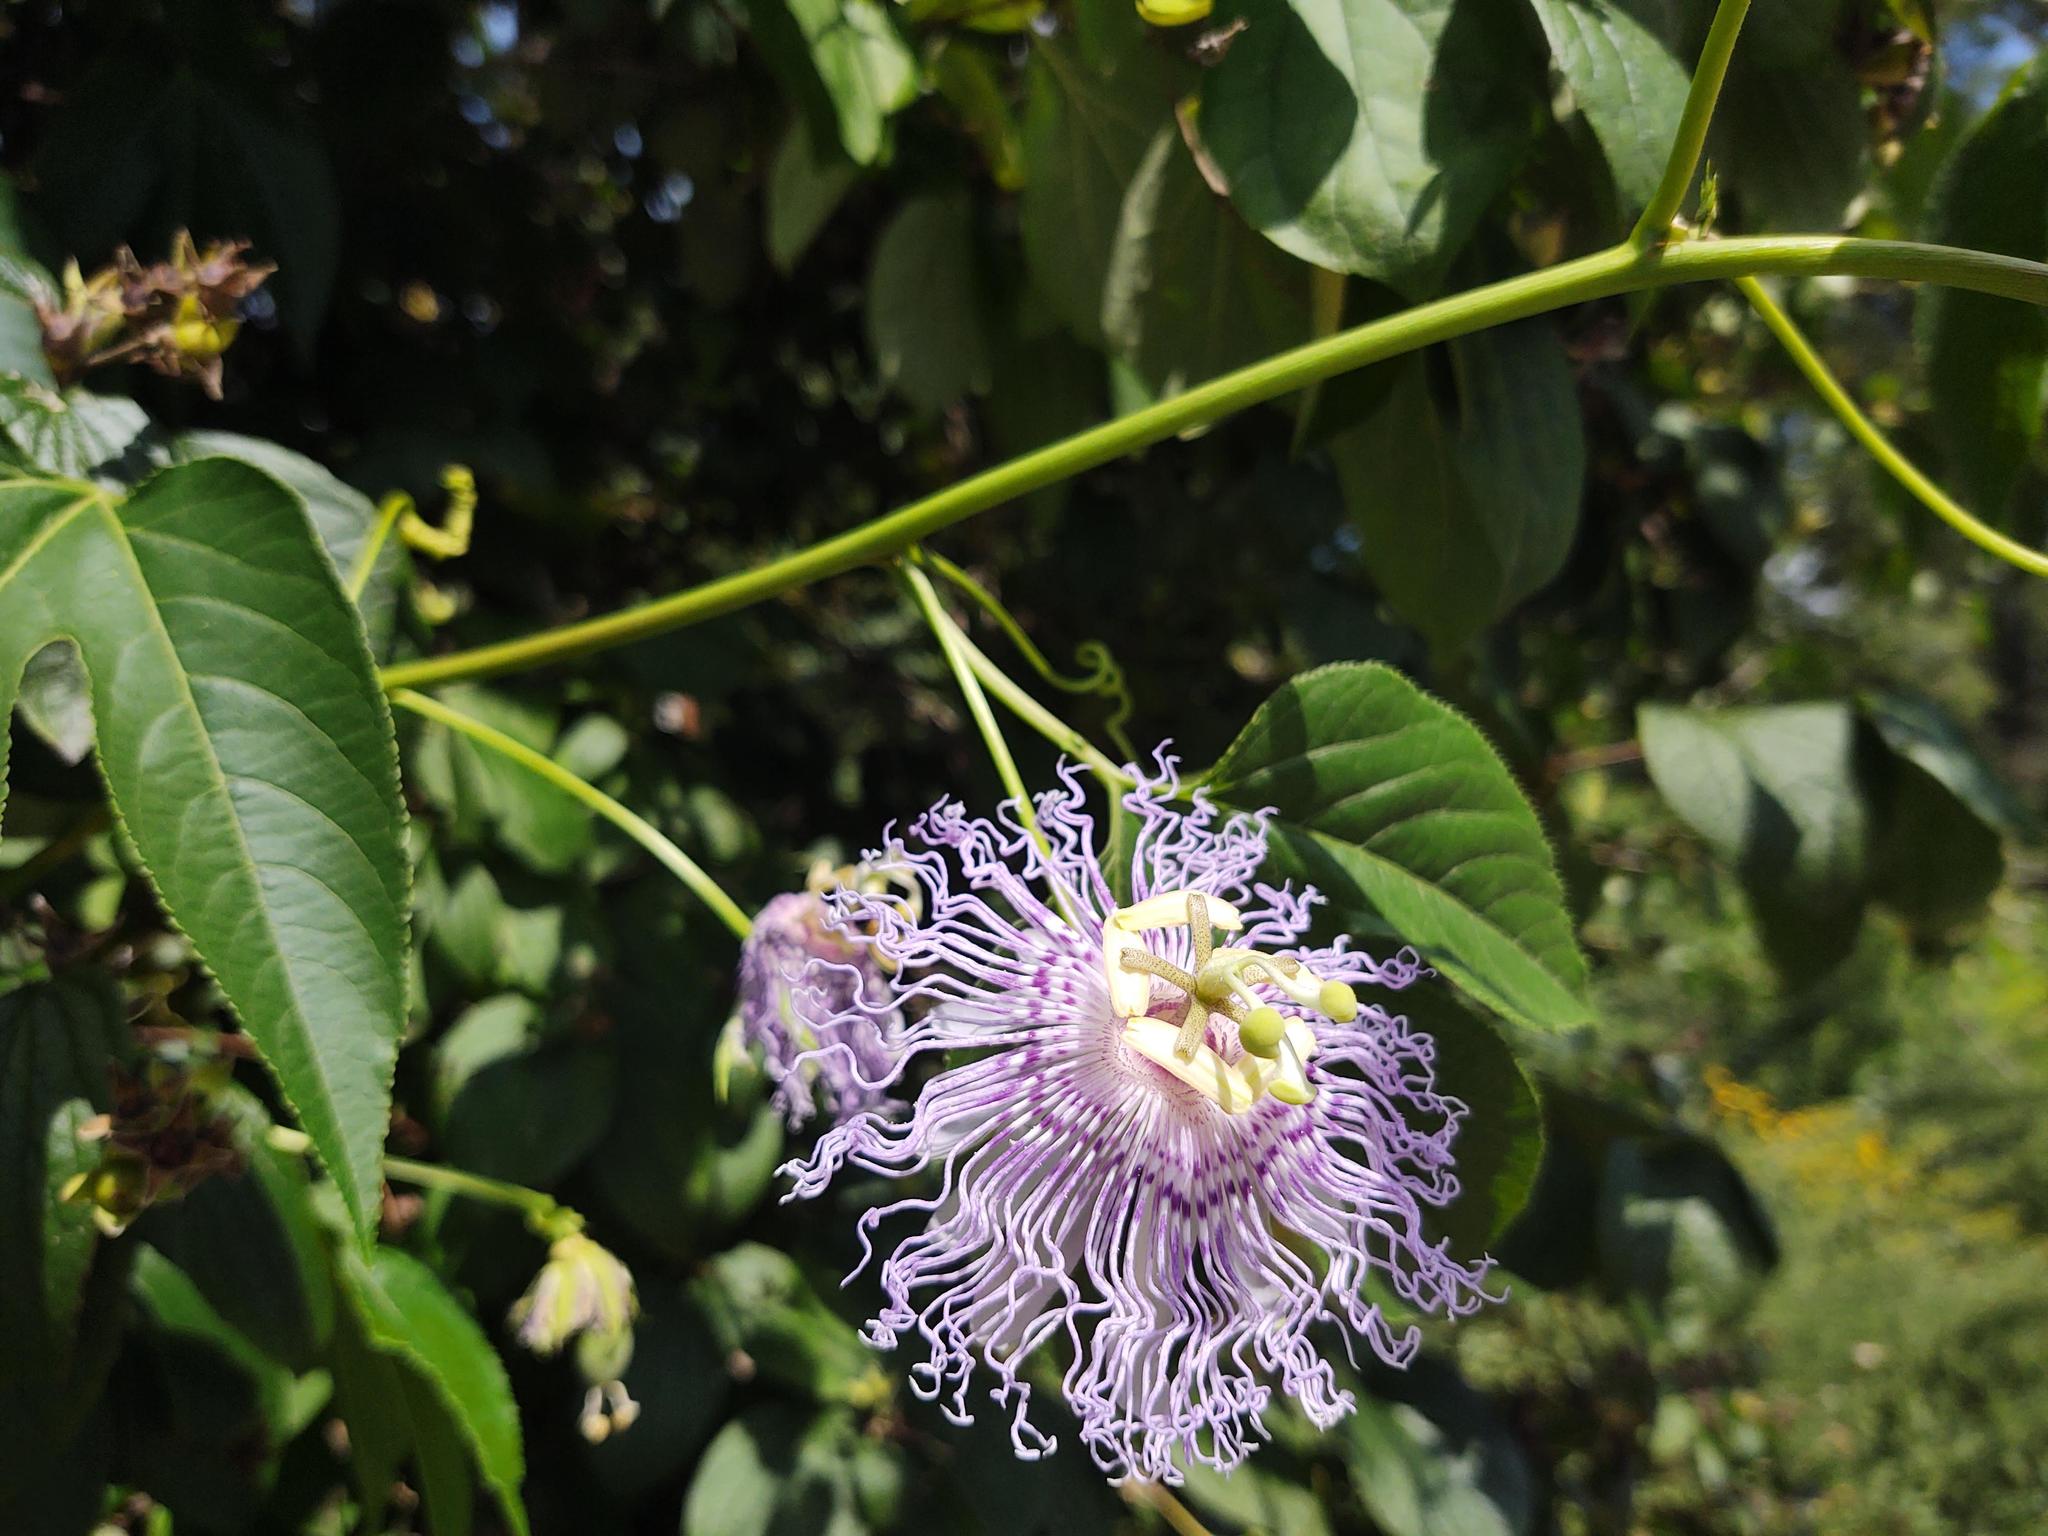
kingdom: Plantae
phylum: Tracheophyta
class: Magnoliopsida
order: Malpighiales
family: Passifloraceae
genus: Passiflora
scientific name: Passiflora incarnata
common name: Apricot-vine
